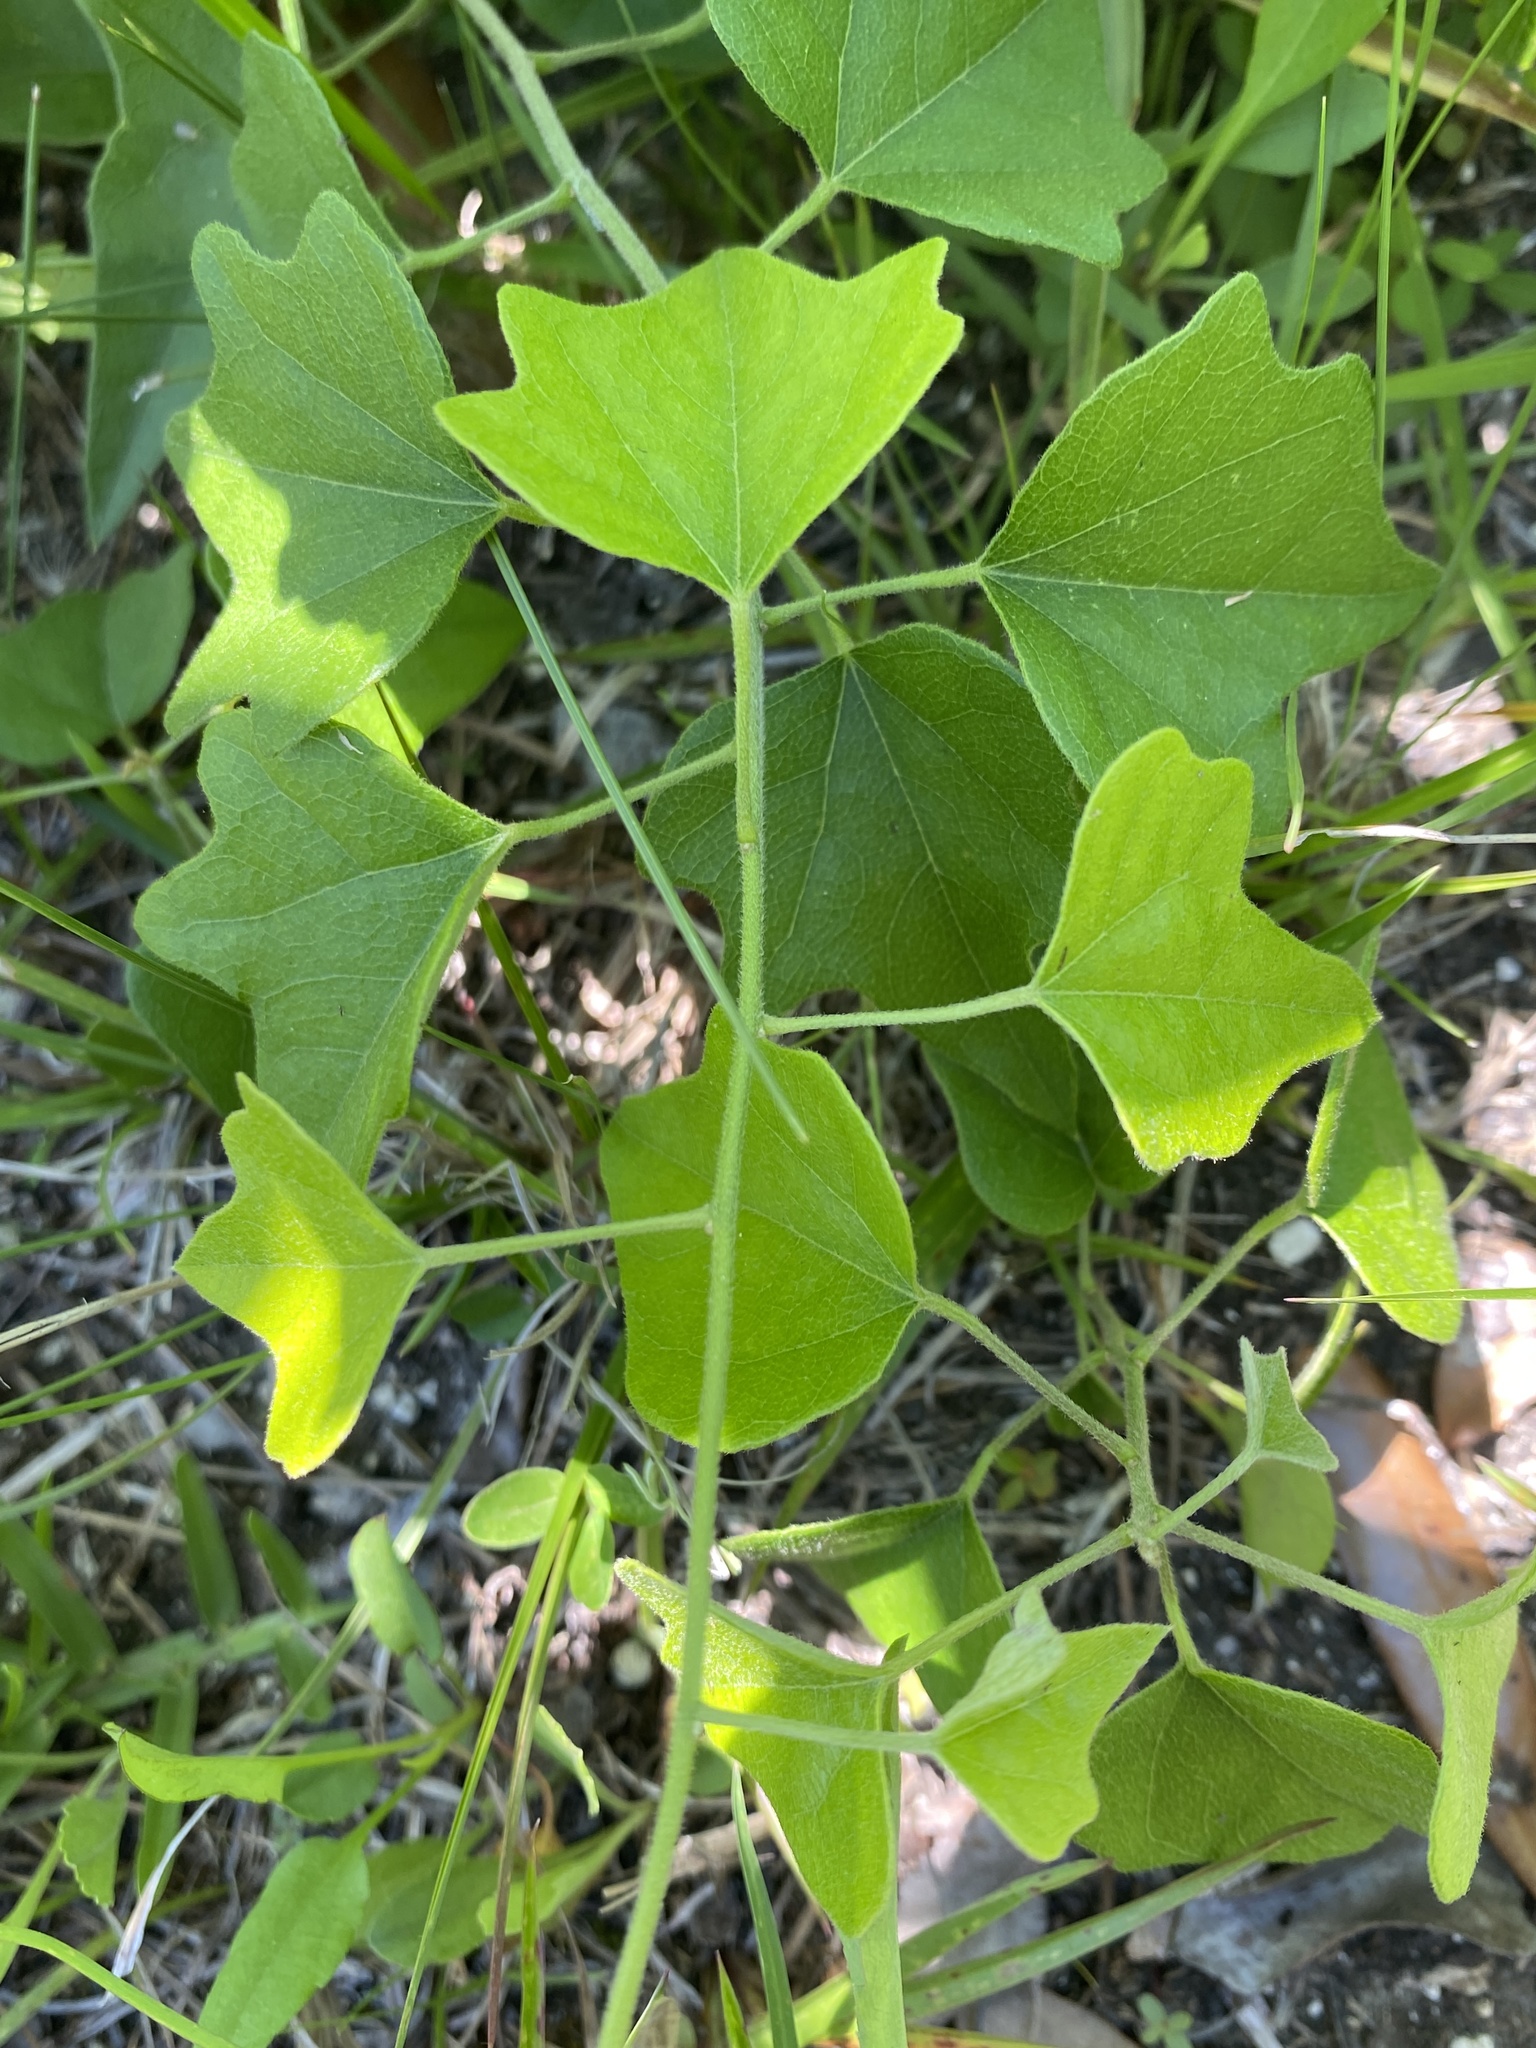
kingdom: Plantae
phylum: Tracheophyta
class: Magnoliopsida
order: Ranunculales
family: Menispermaceae
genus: Cocculus
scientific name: Cocculus carolinus
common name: Carolina moonseed
